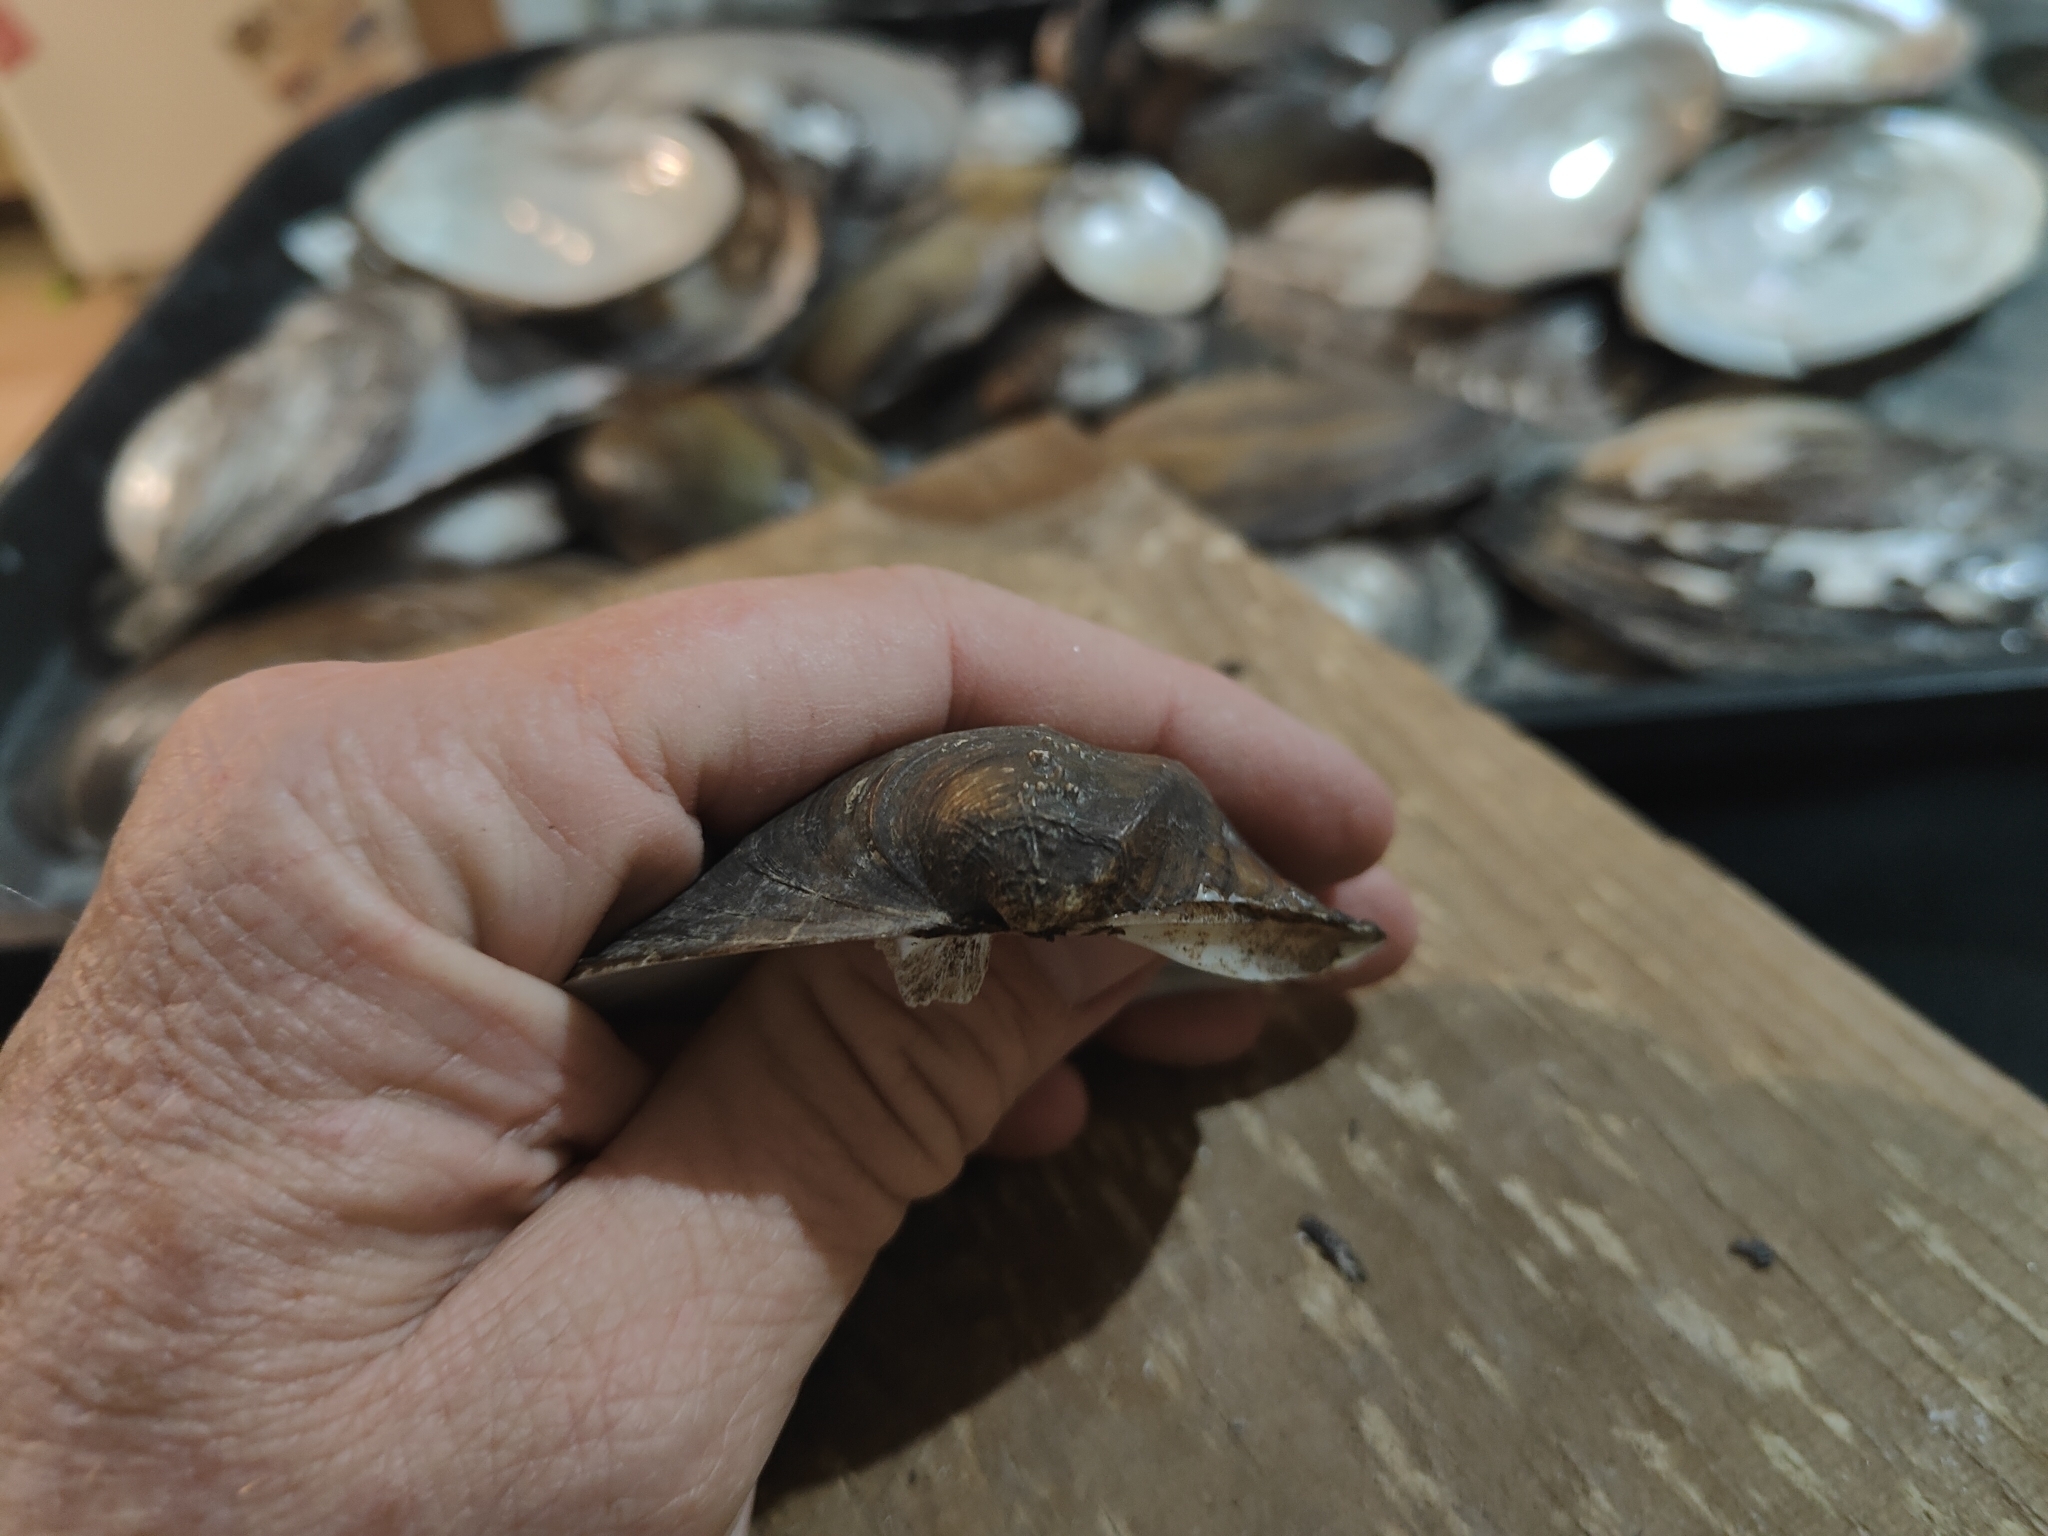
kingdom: Animalia
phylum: Mollusca
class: Bivalvia
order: Unionida
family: Unionidae
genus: Quadrula
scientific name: Quadrula quadrula
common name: Mapleleaf
